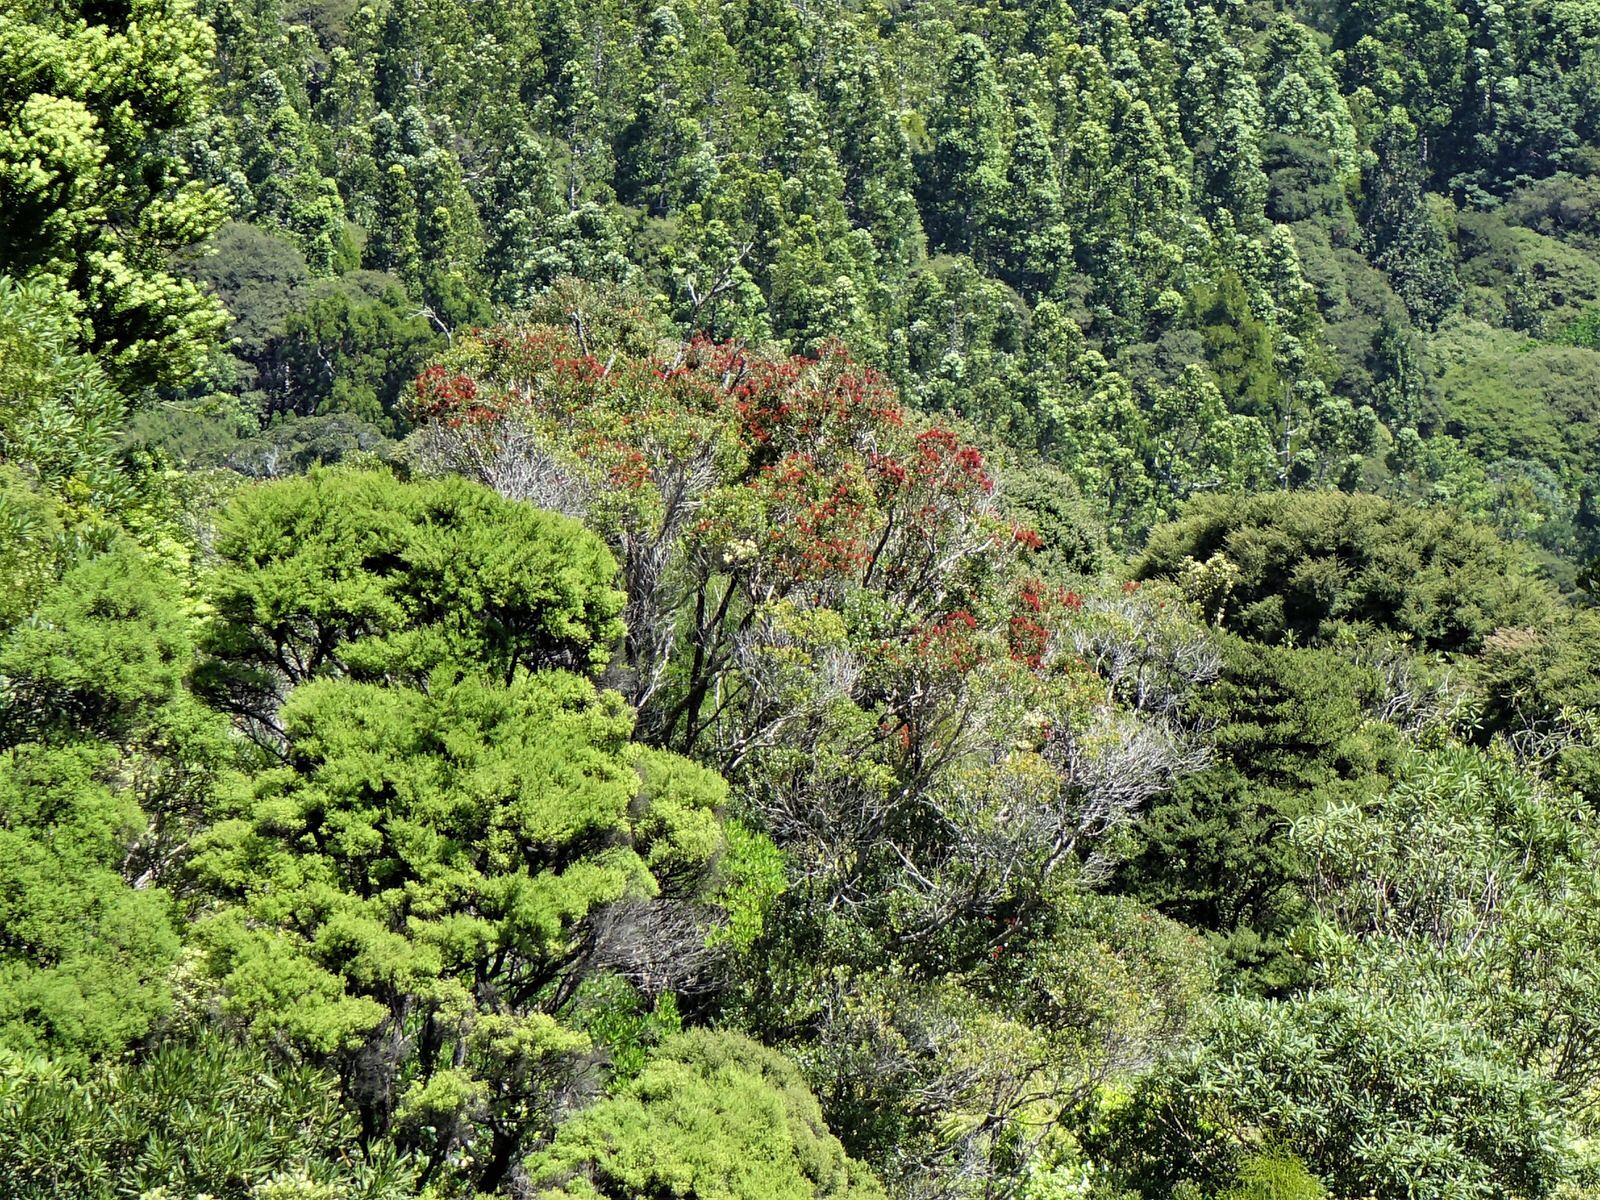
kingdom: Plantae
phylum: Tracheophyta
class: Magnoliopsida
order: Myrtales
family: Myrtaceae
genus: Metrosideros
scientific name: Metrosideros robusta
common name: Northern rata
